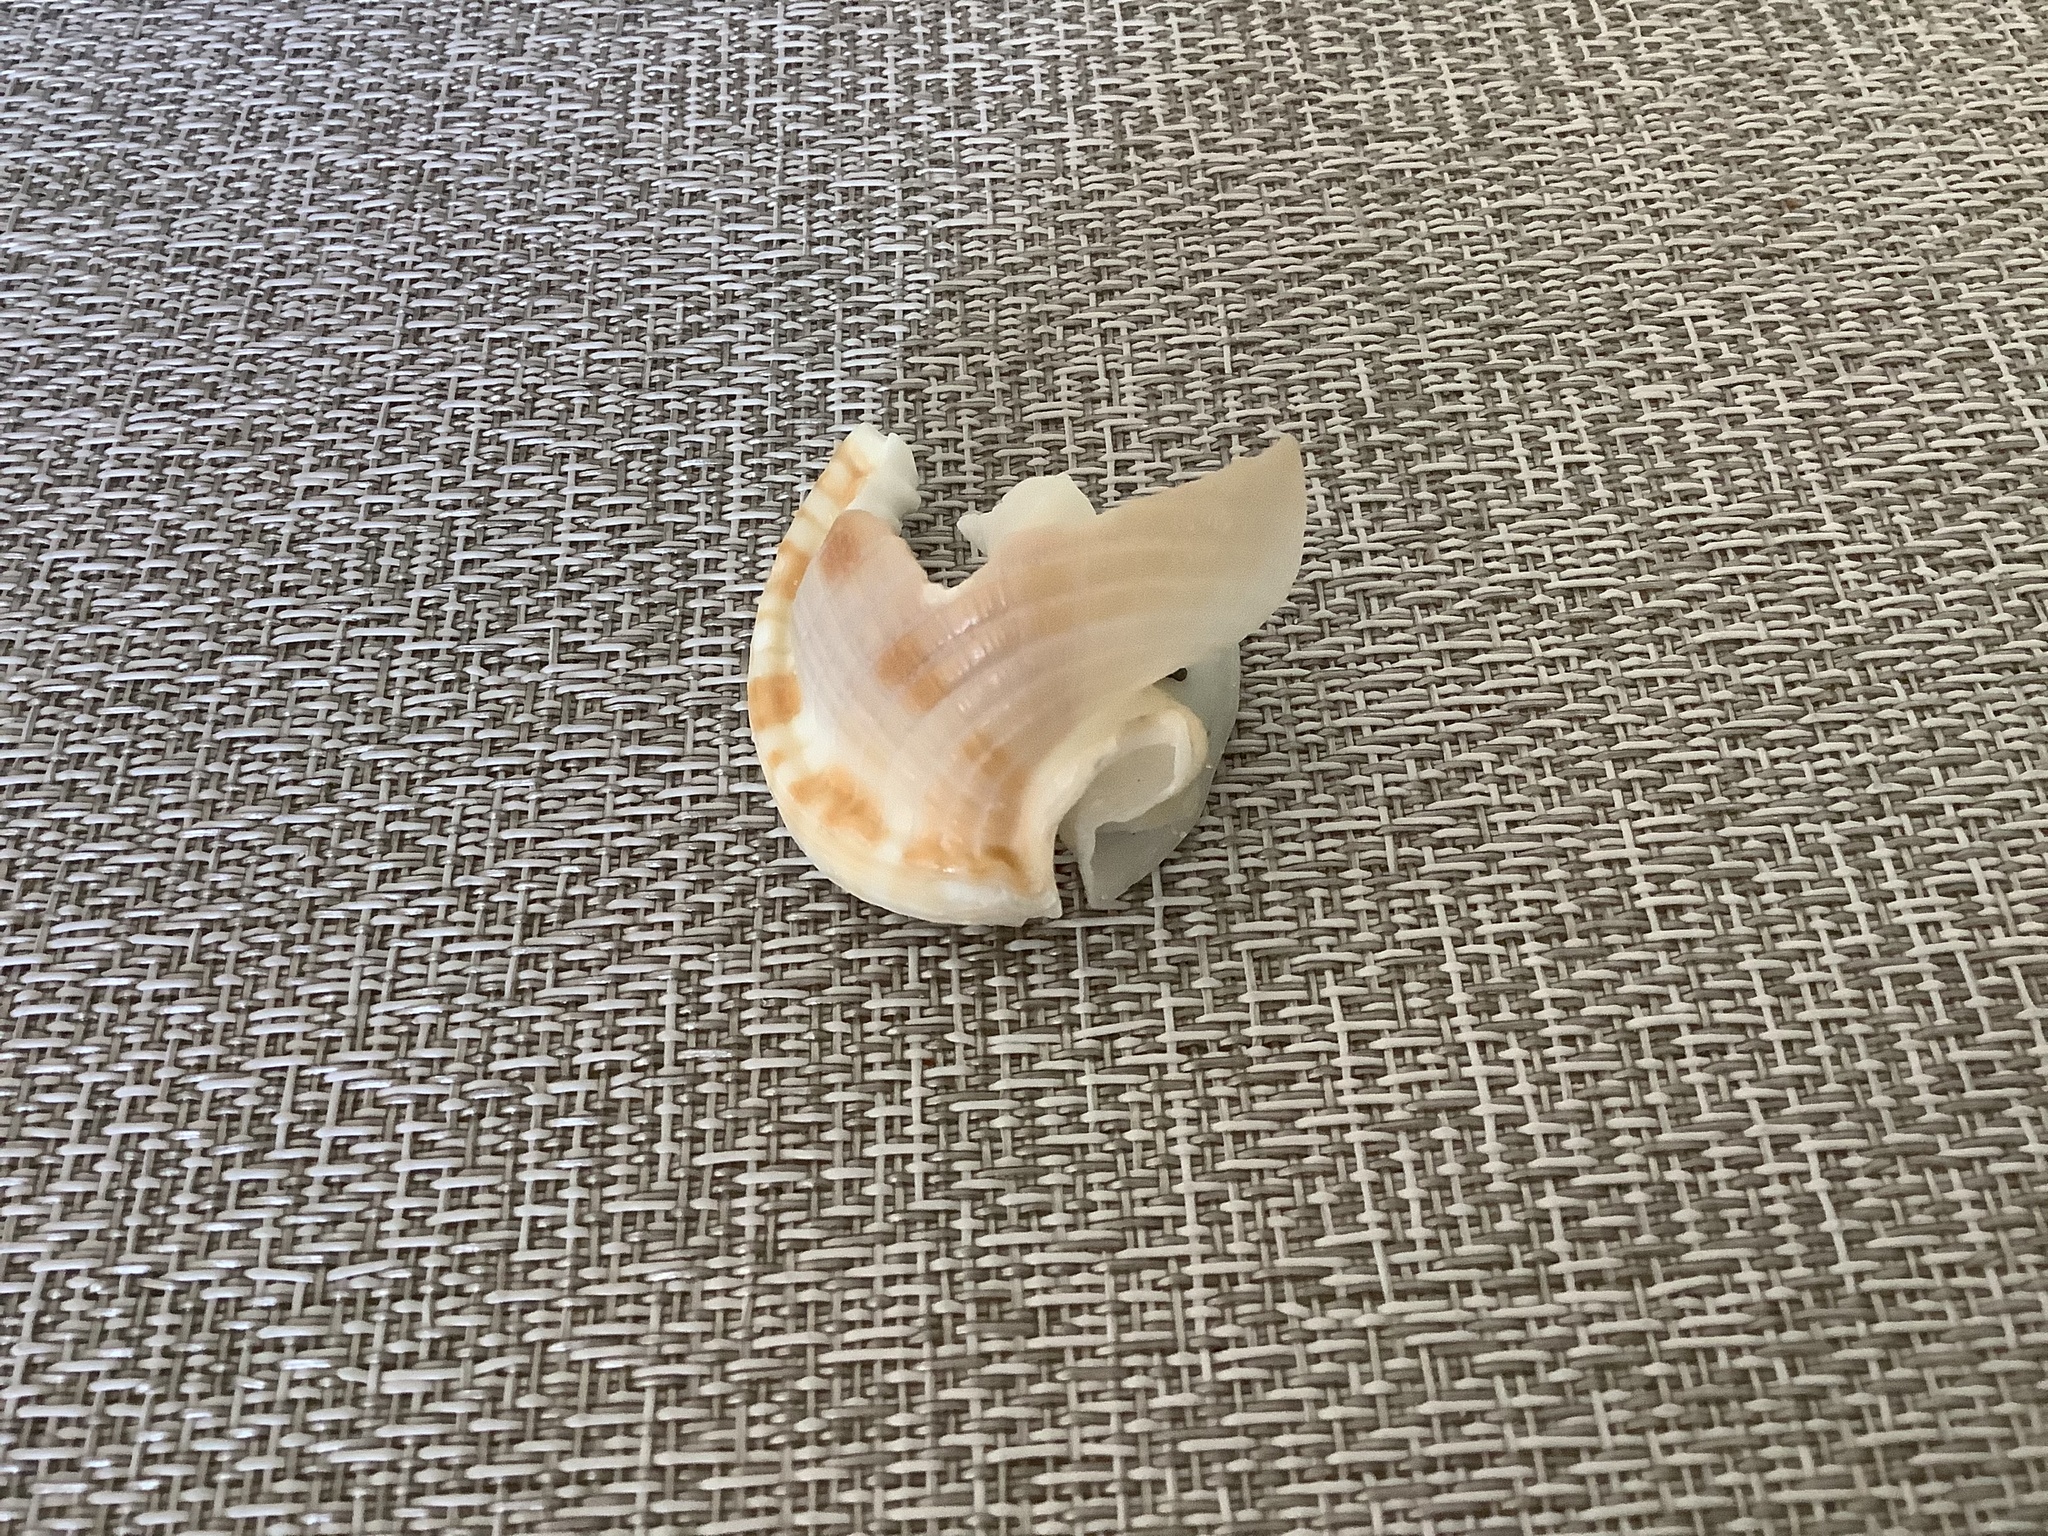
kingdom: Animalia
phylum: Mollusca
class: Gastropoda
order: Littorinimorpha
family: Cassidae
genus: Semicassis
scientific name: Semicassis granulata
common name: Scotch bonnet
